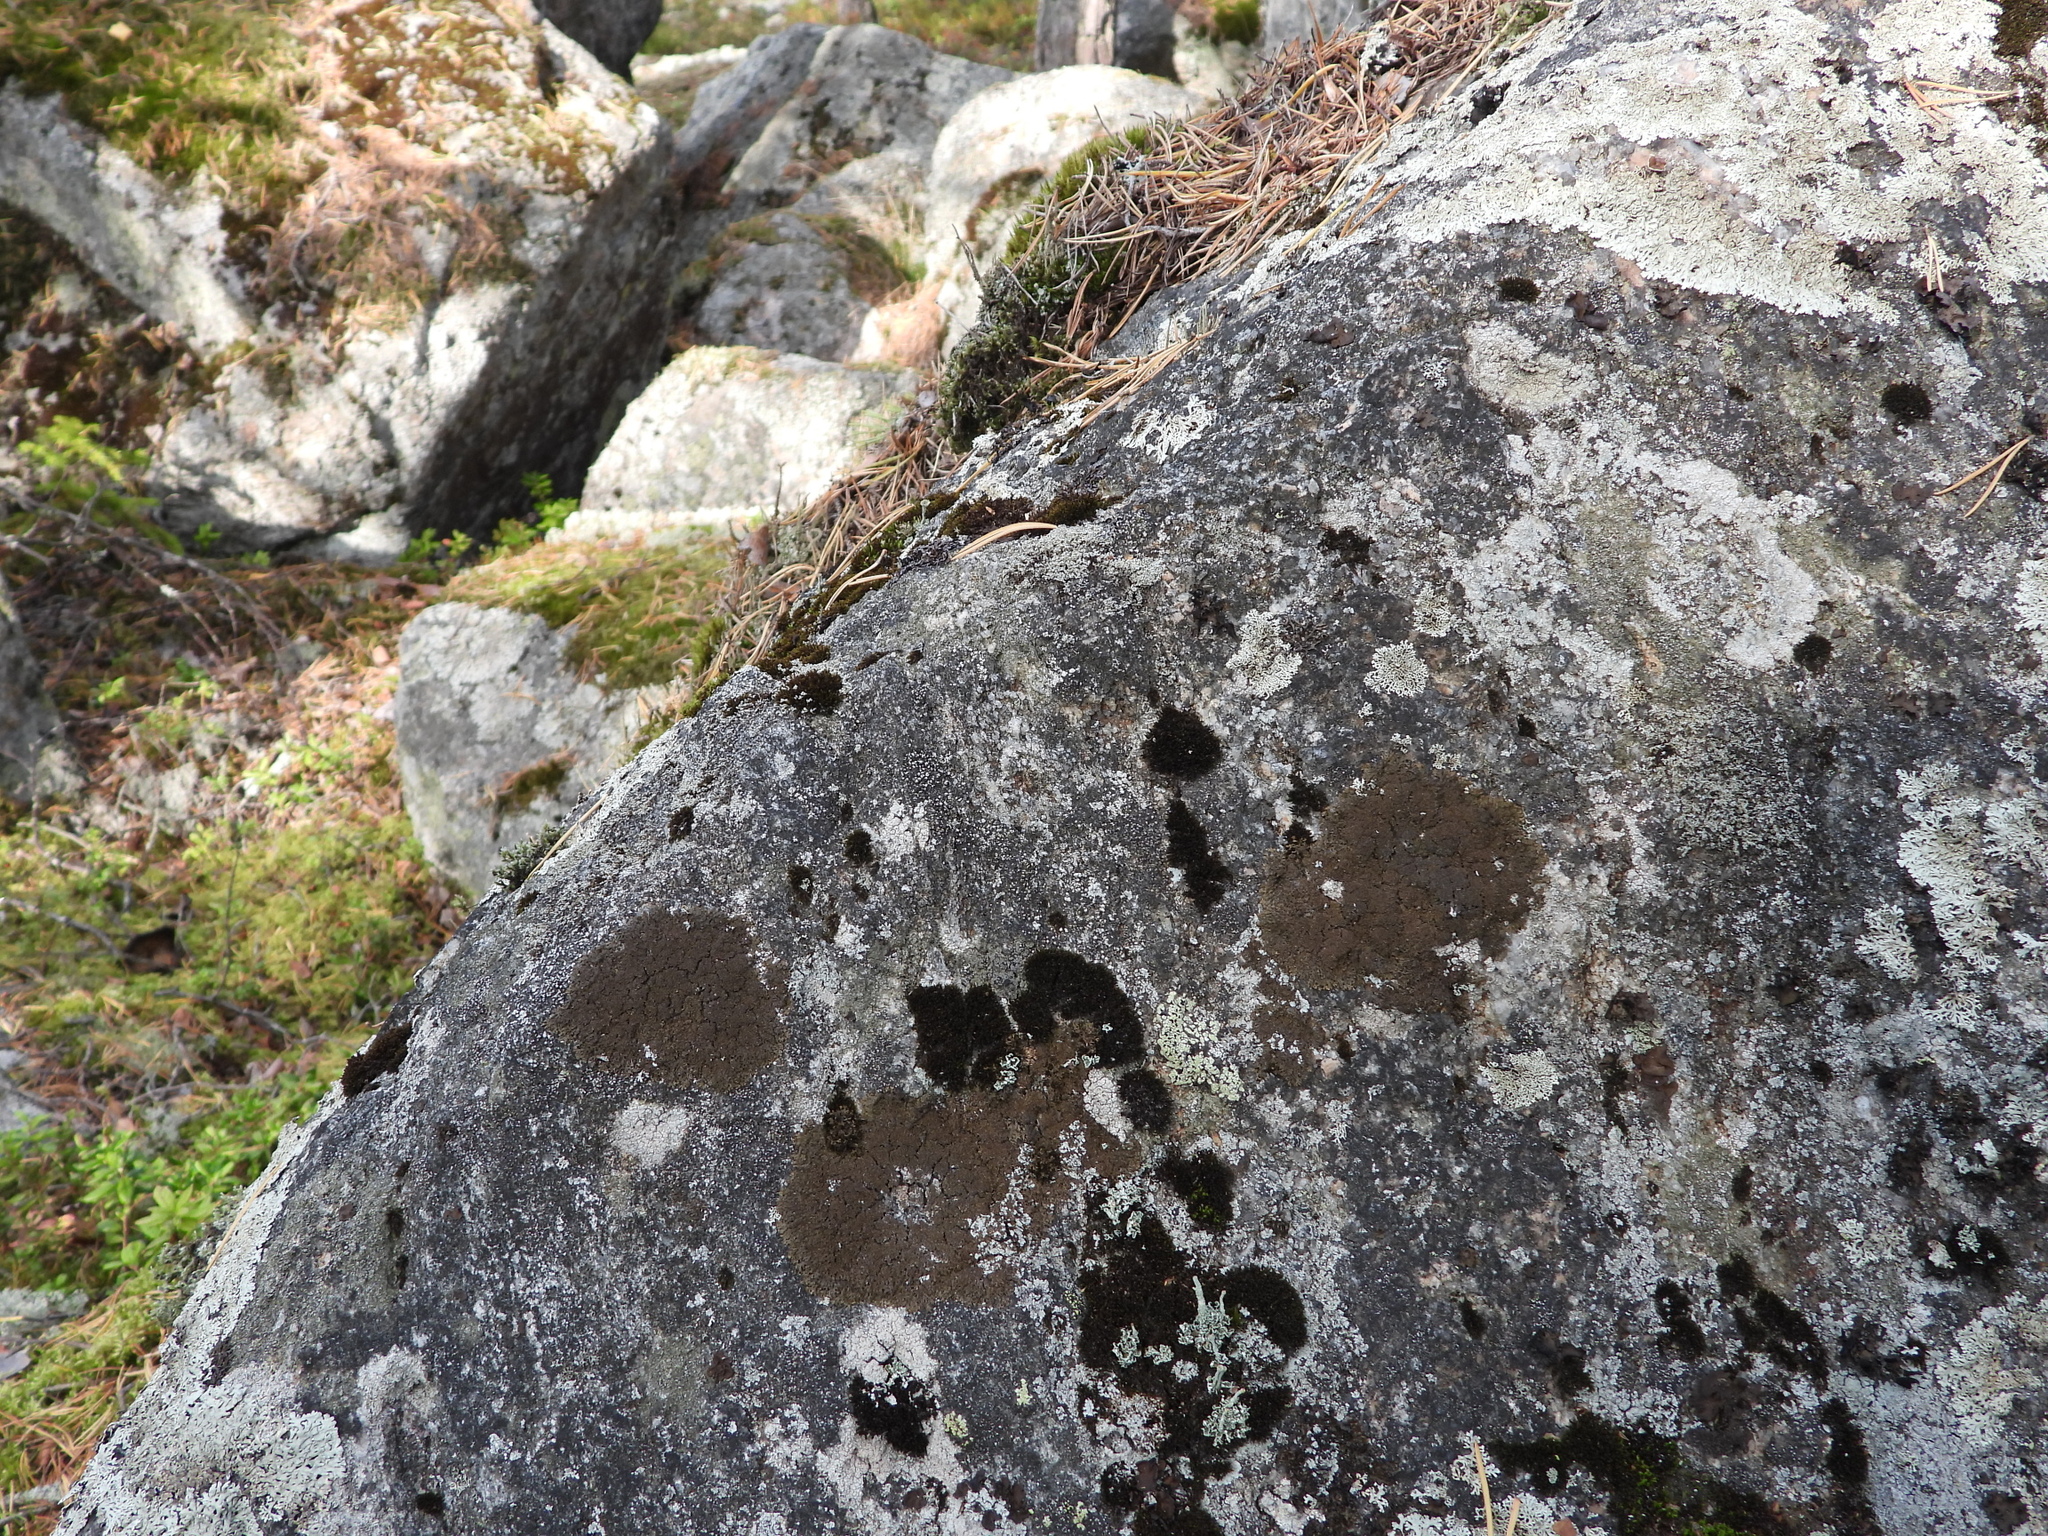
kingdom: Fungi
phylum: Ascomycota
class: Lecanoromycetes
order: Lecanorales
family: Parmeliaceae
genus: Montanelia
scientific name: Montanelia panniformis
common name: Shingled camouflage lichen
